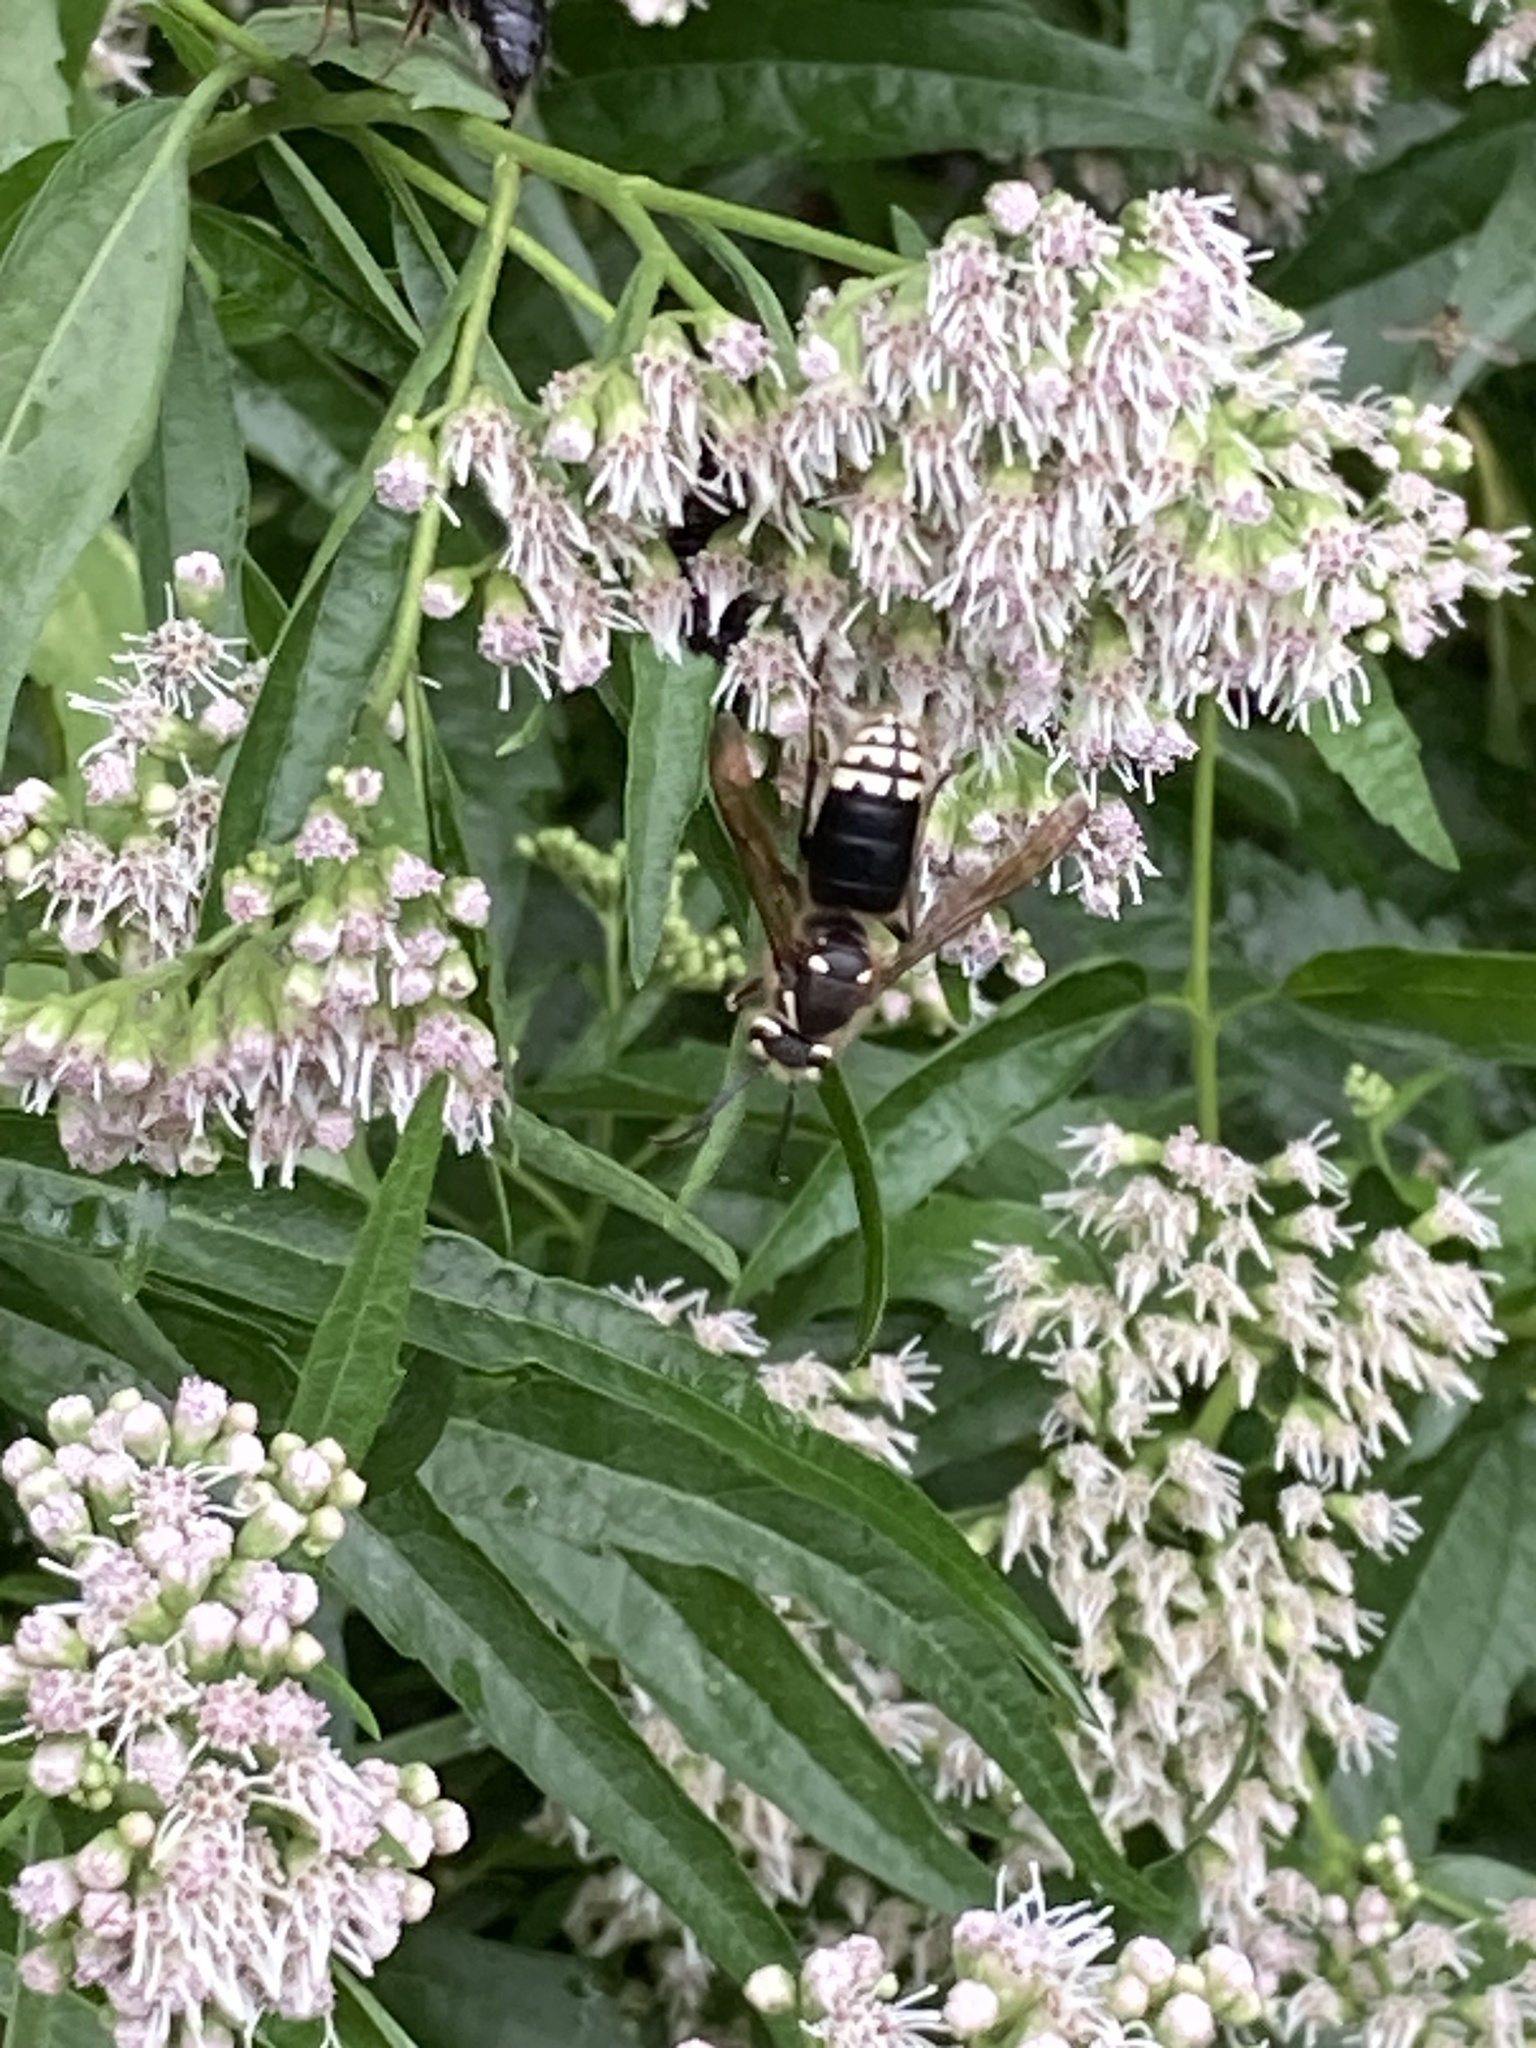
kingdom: Animalia
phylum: Arthropoda
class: Insecta
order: Hymenoptera
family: Vespidae
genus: Dolichovespula
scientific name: Dolichovespula maculata
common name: Bald-faced hornet
